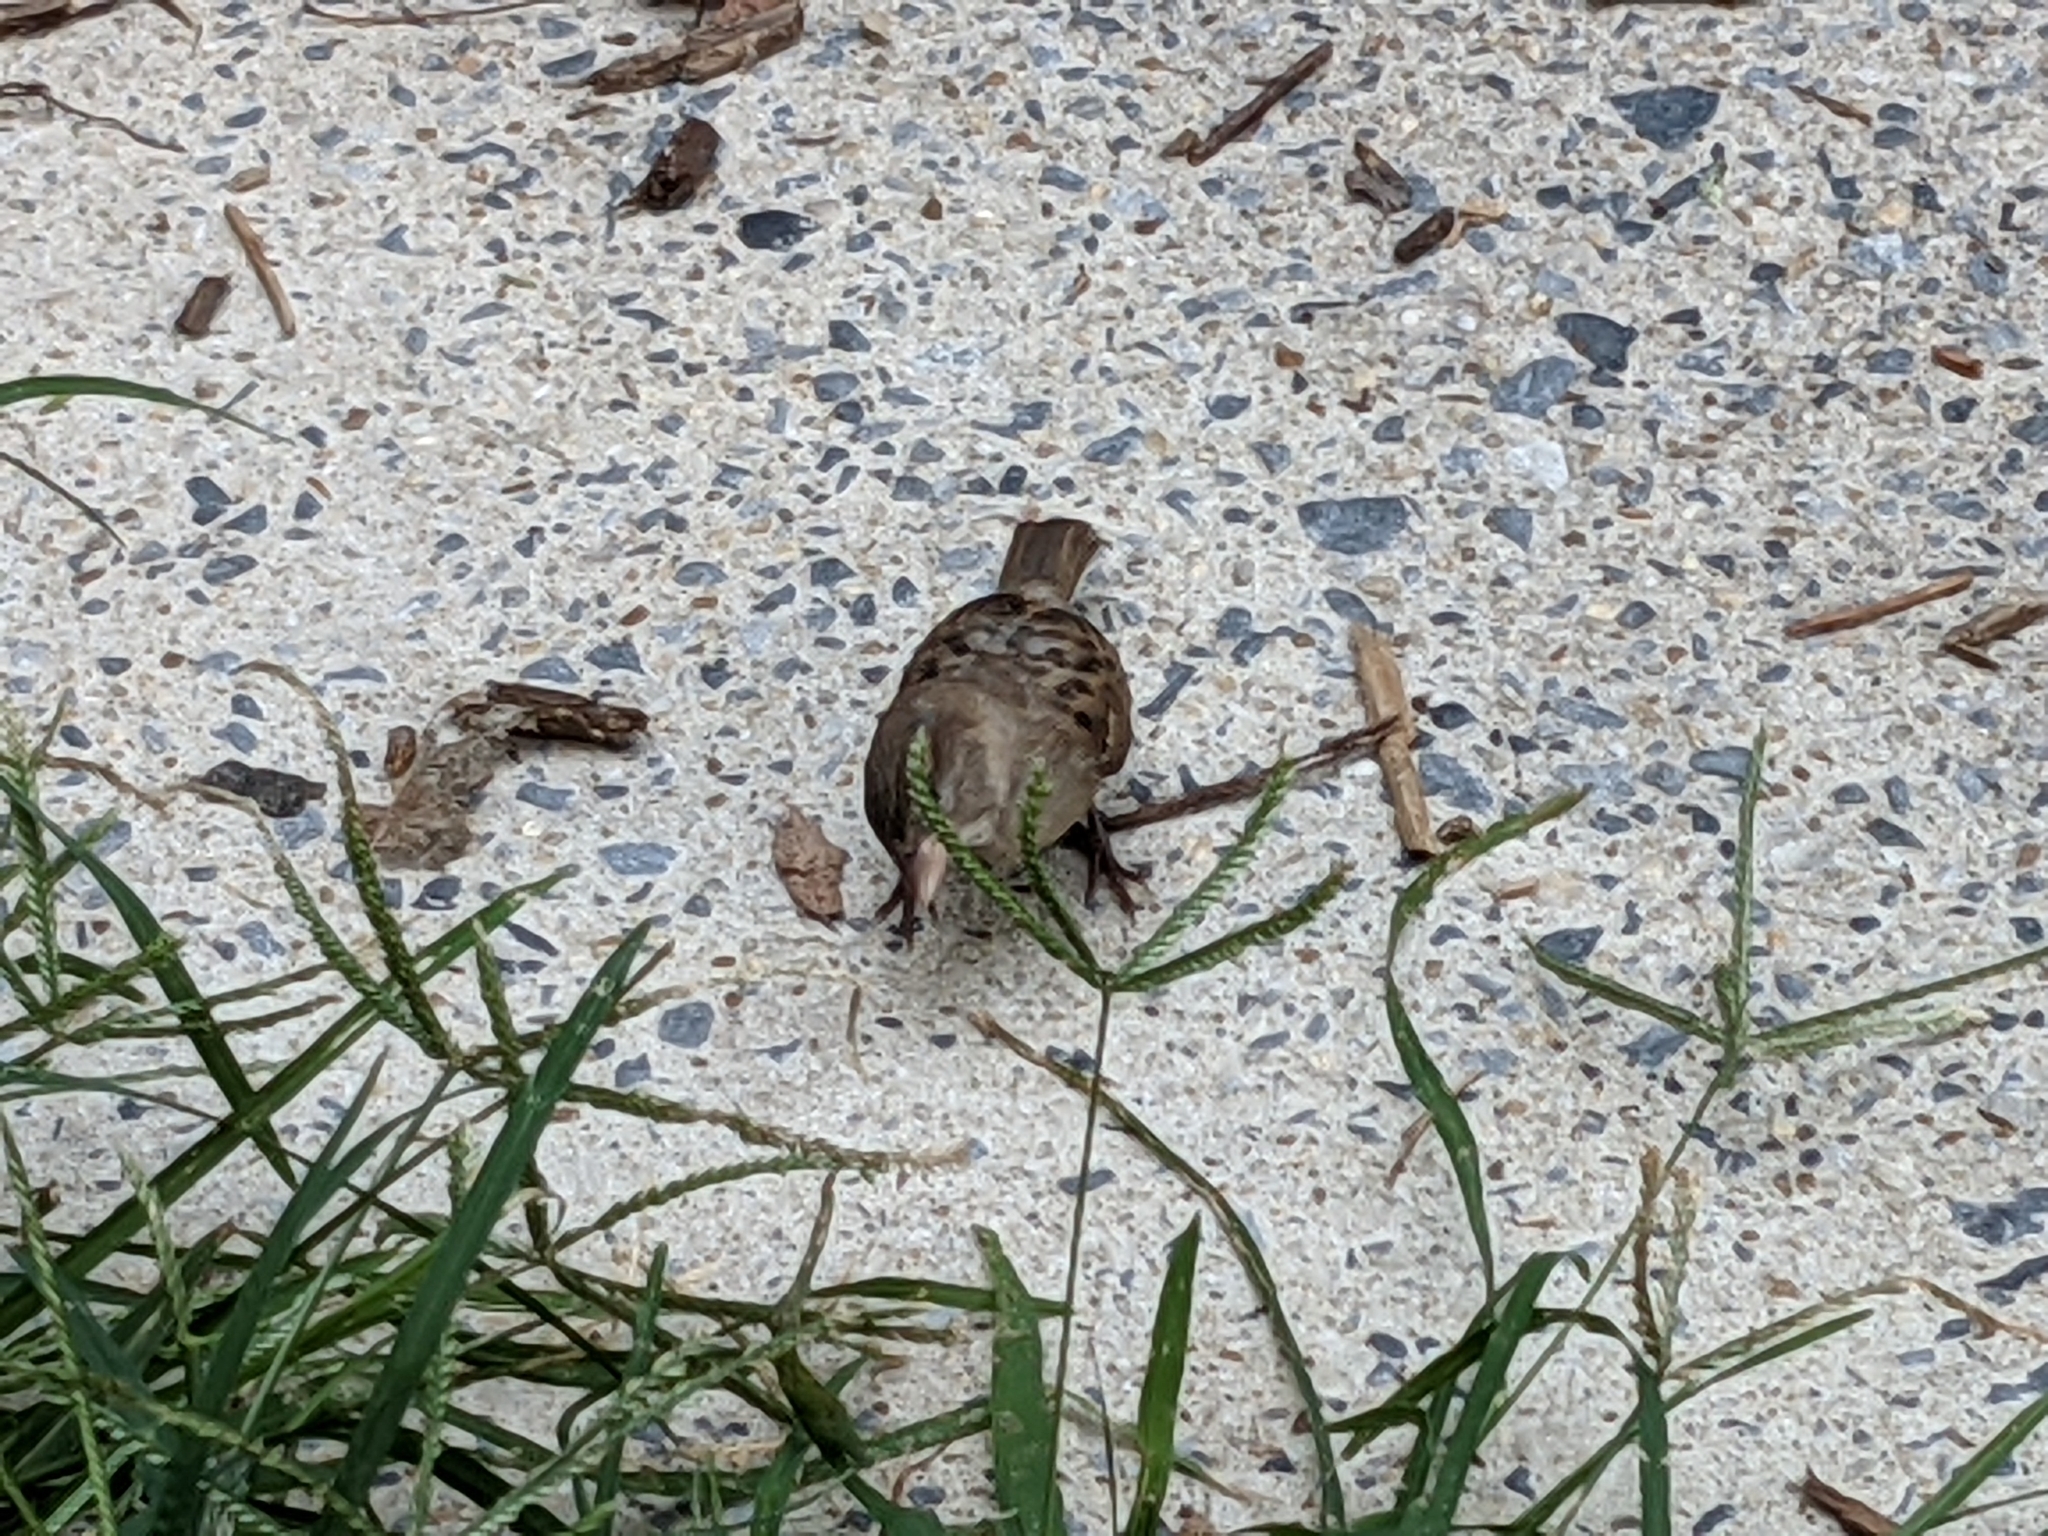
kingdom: Animalia
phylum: Chordata
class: Aves
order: Passeriformes
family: Passeridae
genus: Passer
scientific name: Passer domesticus
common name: House sparrow
